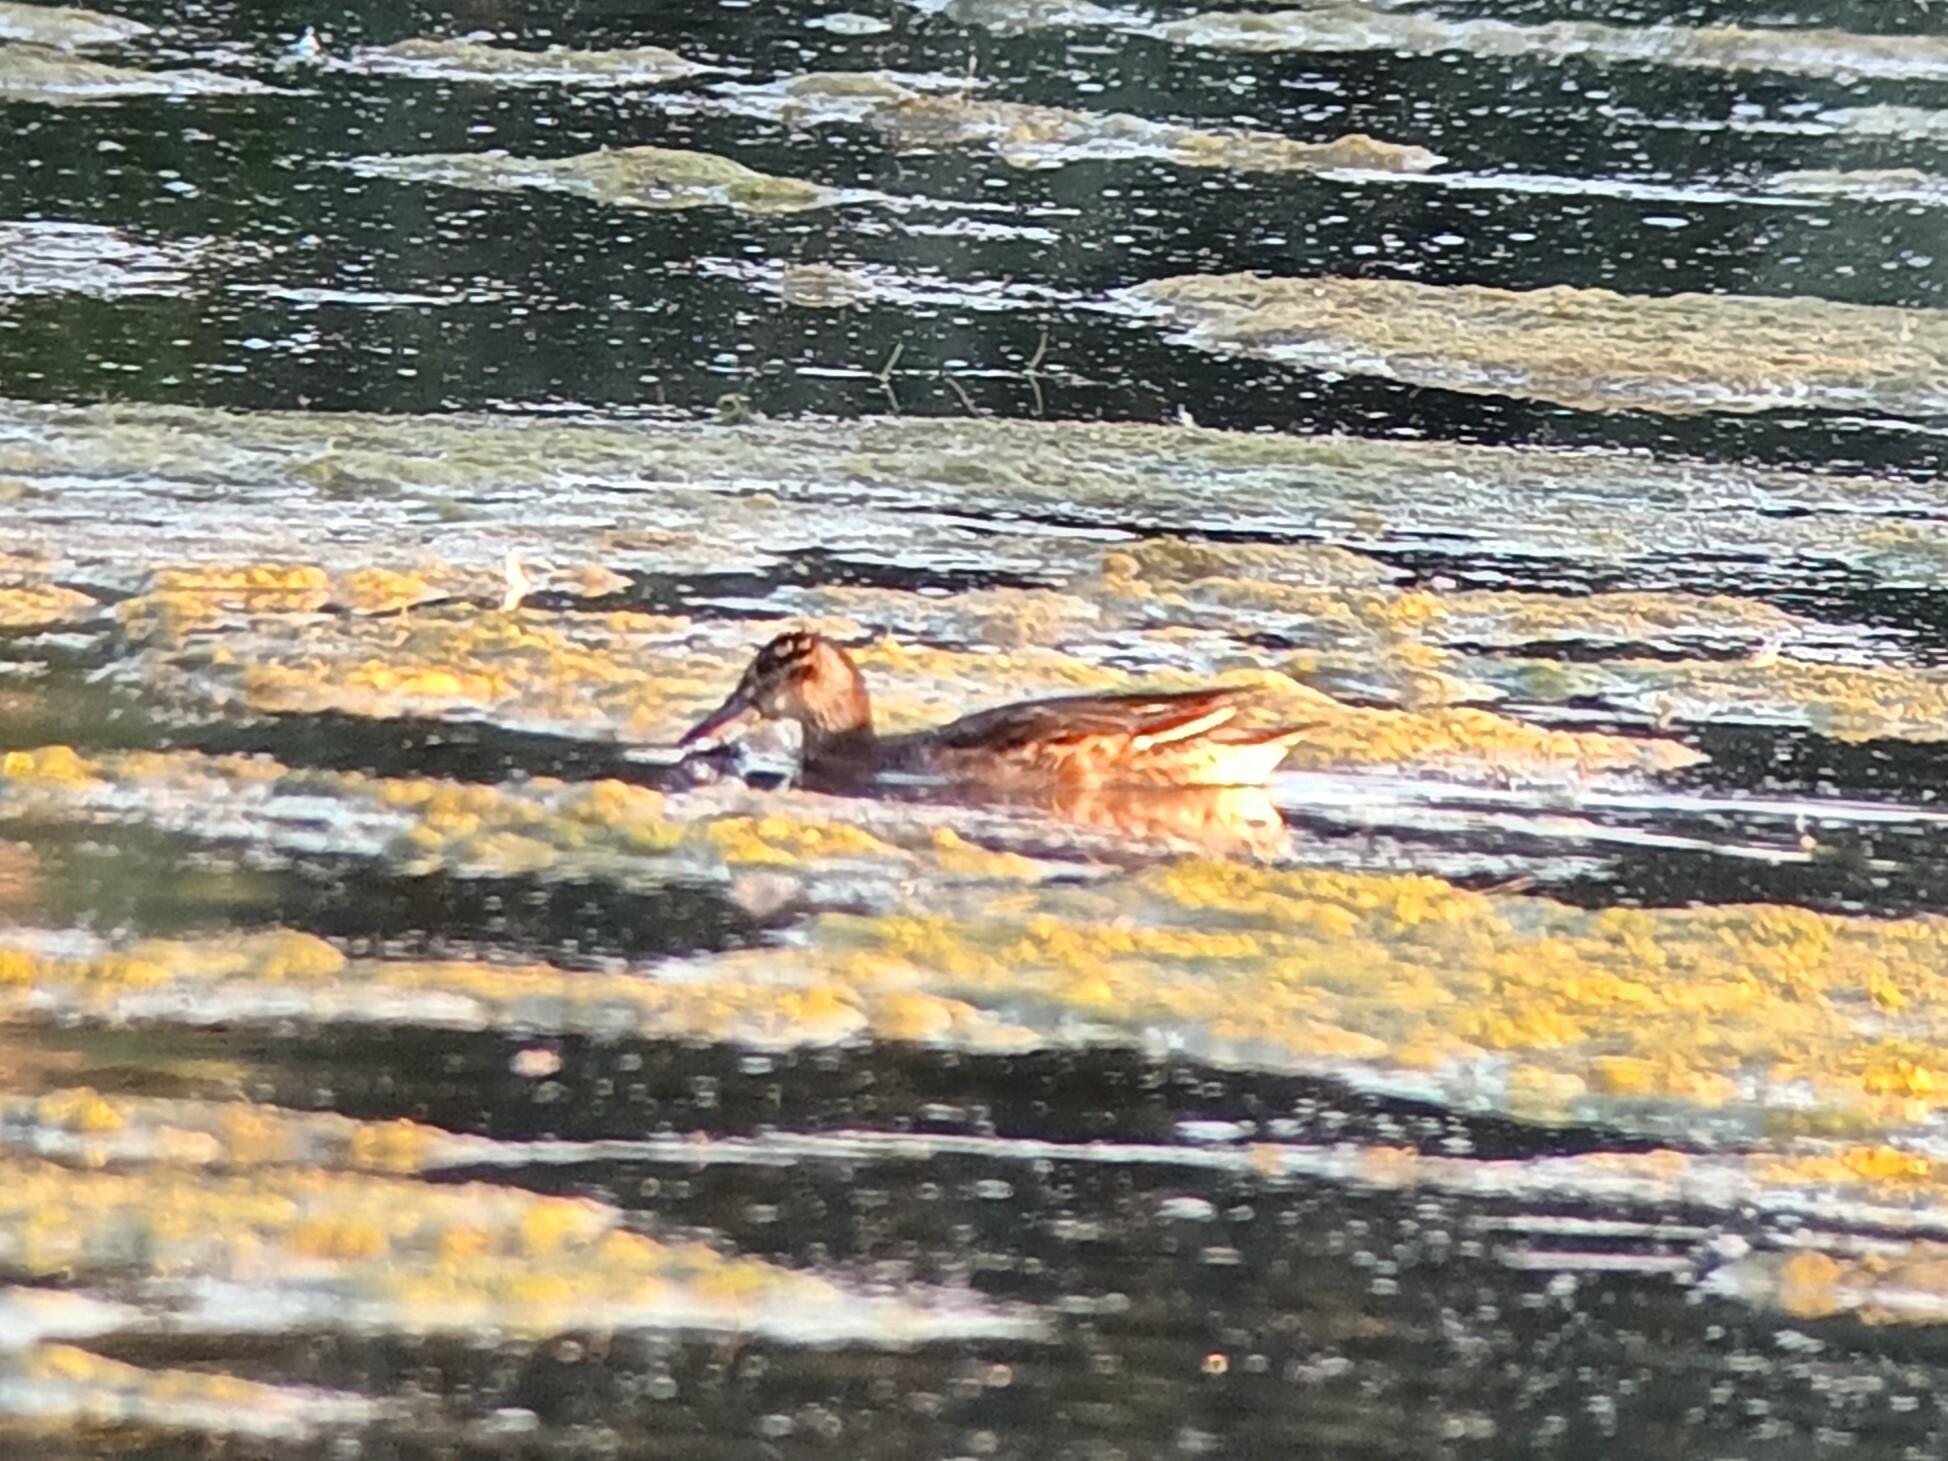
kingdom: Animalia
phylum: Chordata
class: Aves
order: Anseriformes
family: Anatidae
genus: Spatula
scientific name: Spatula querquedula
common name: Garganey
